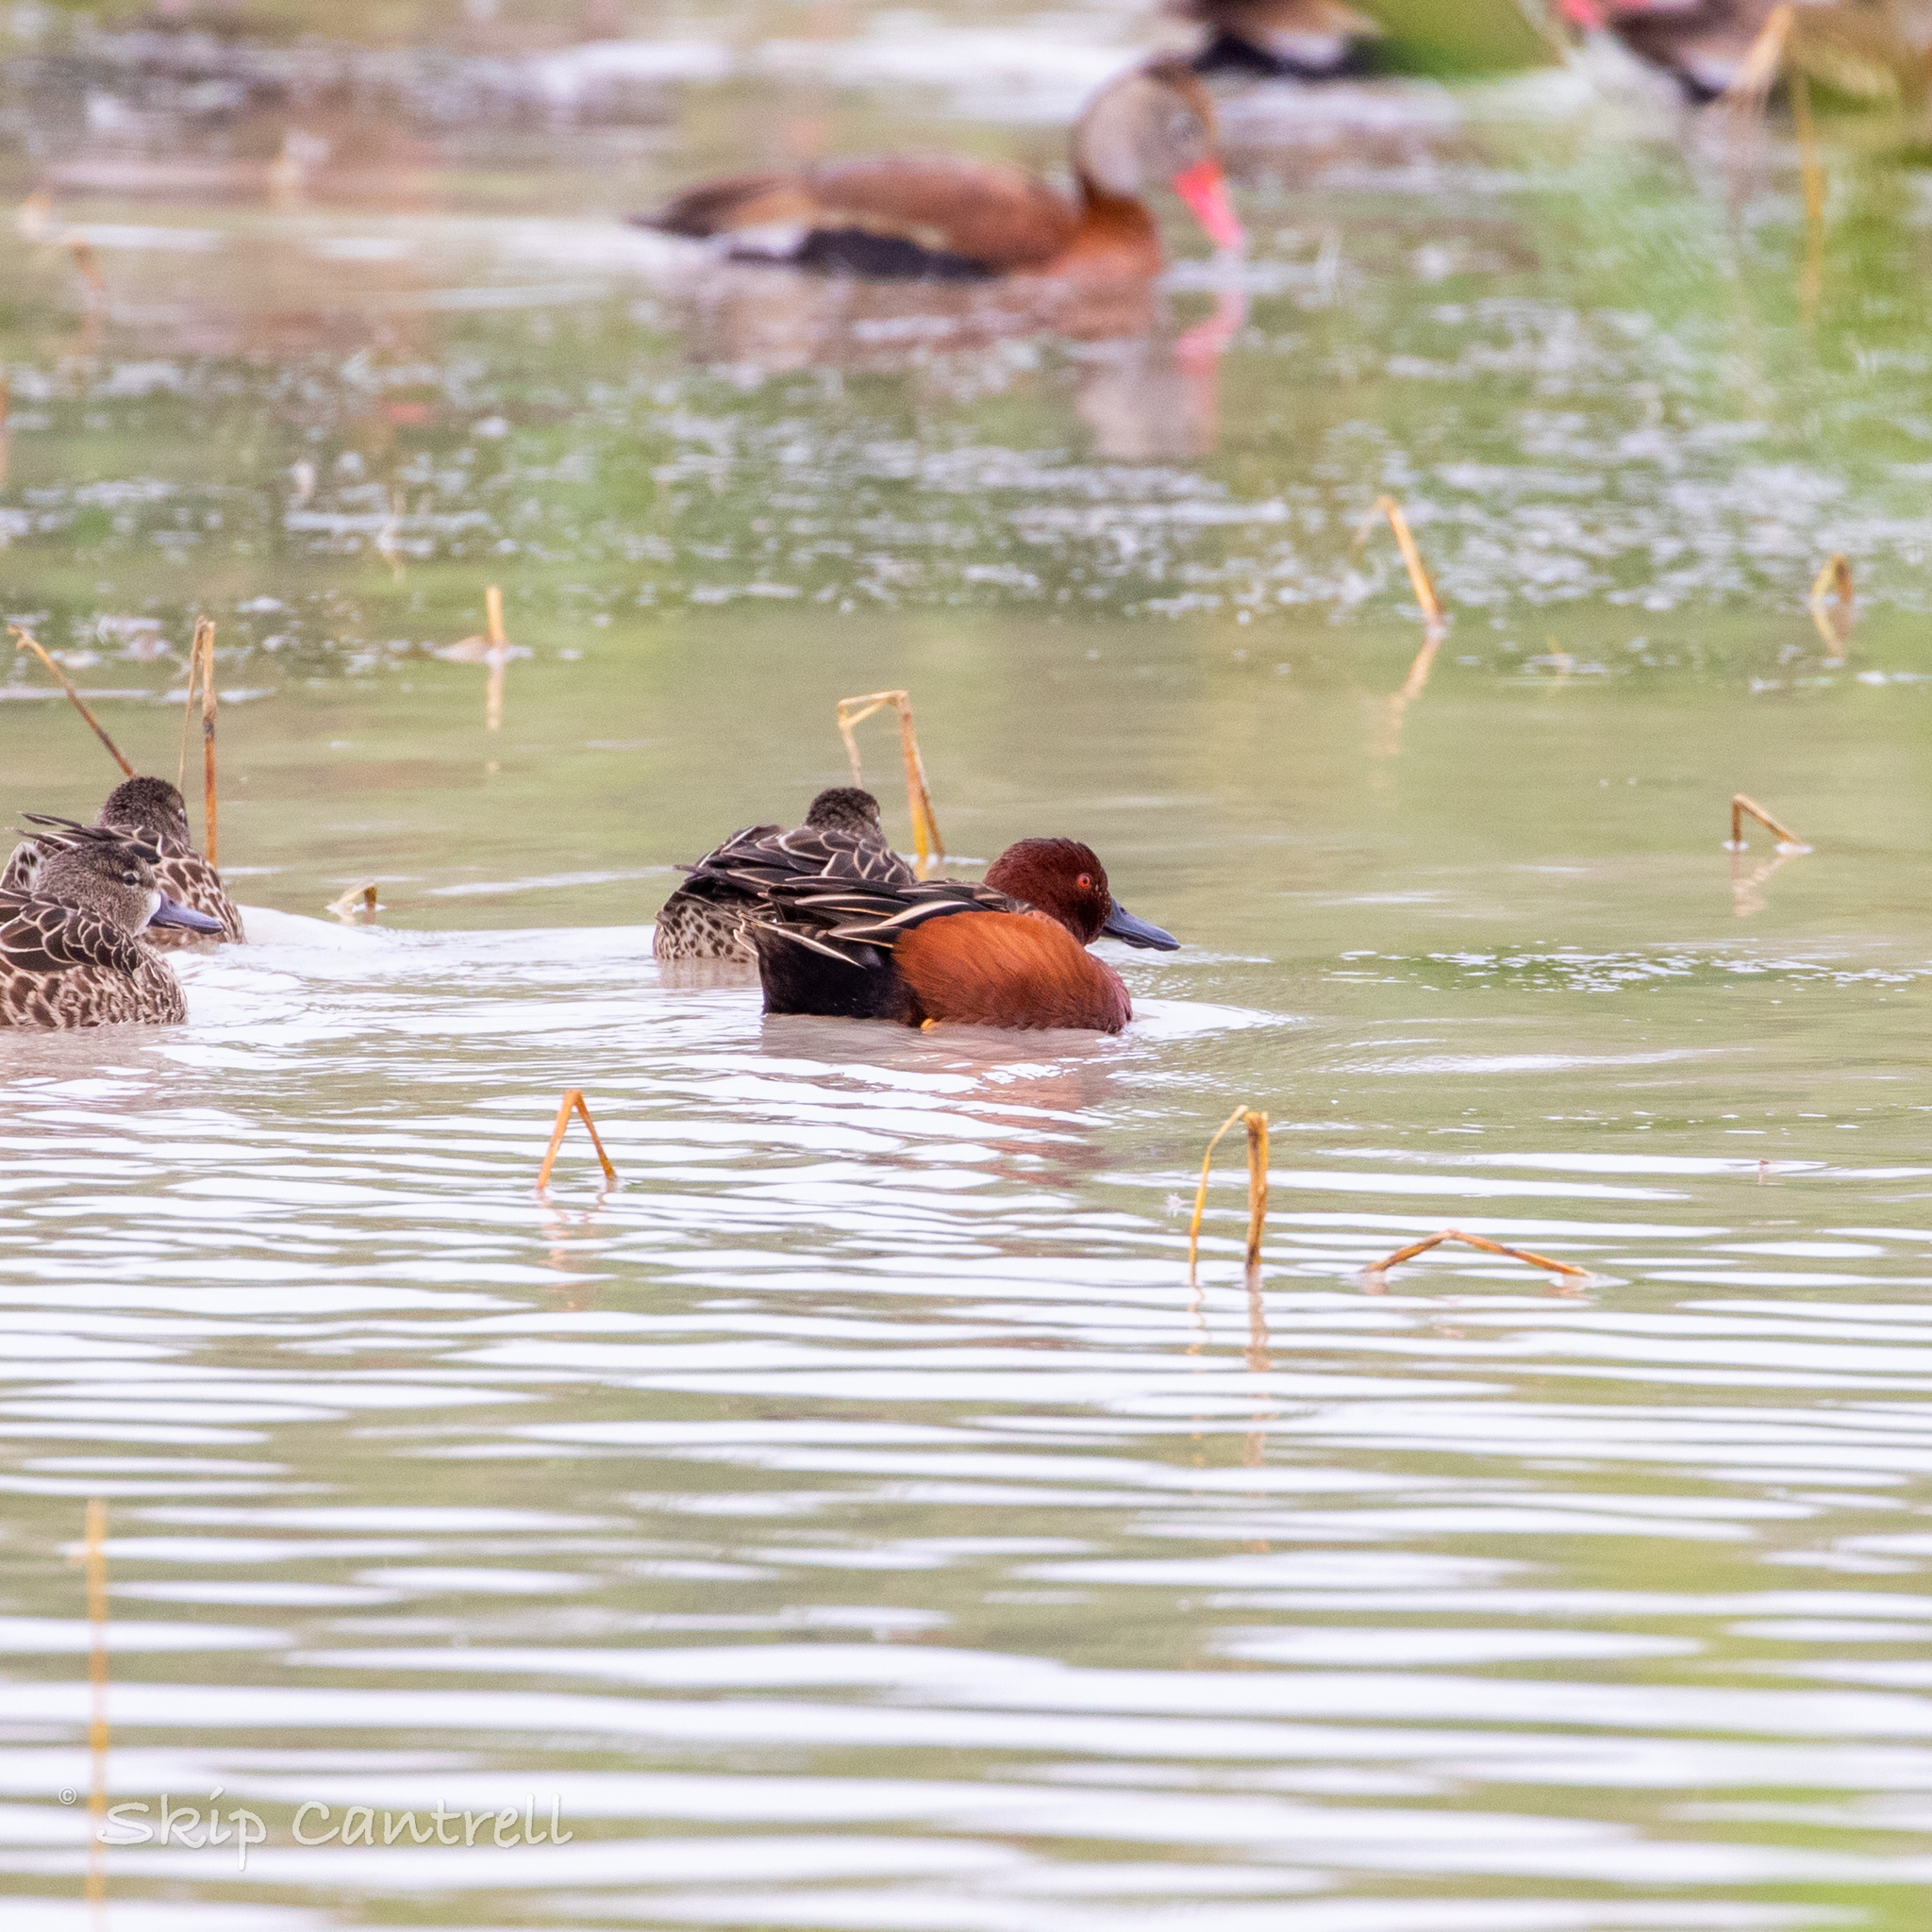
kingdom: Animalia
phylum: Chordata
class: Aves
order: Anseriformes
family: Anatidae
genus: Spatula
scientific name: Spatula cyanoptera
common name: Cinnamon teal
